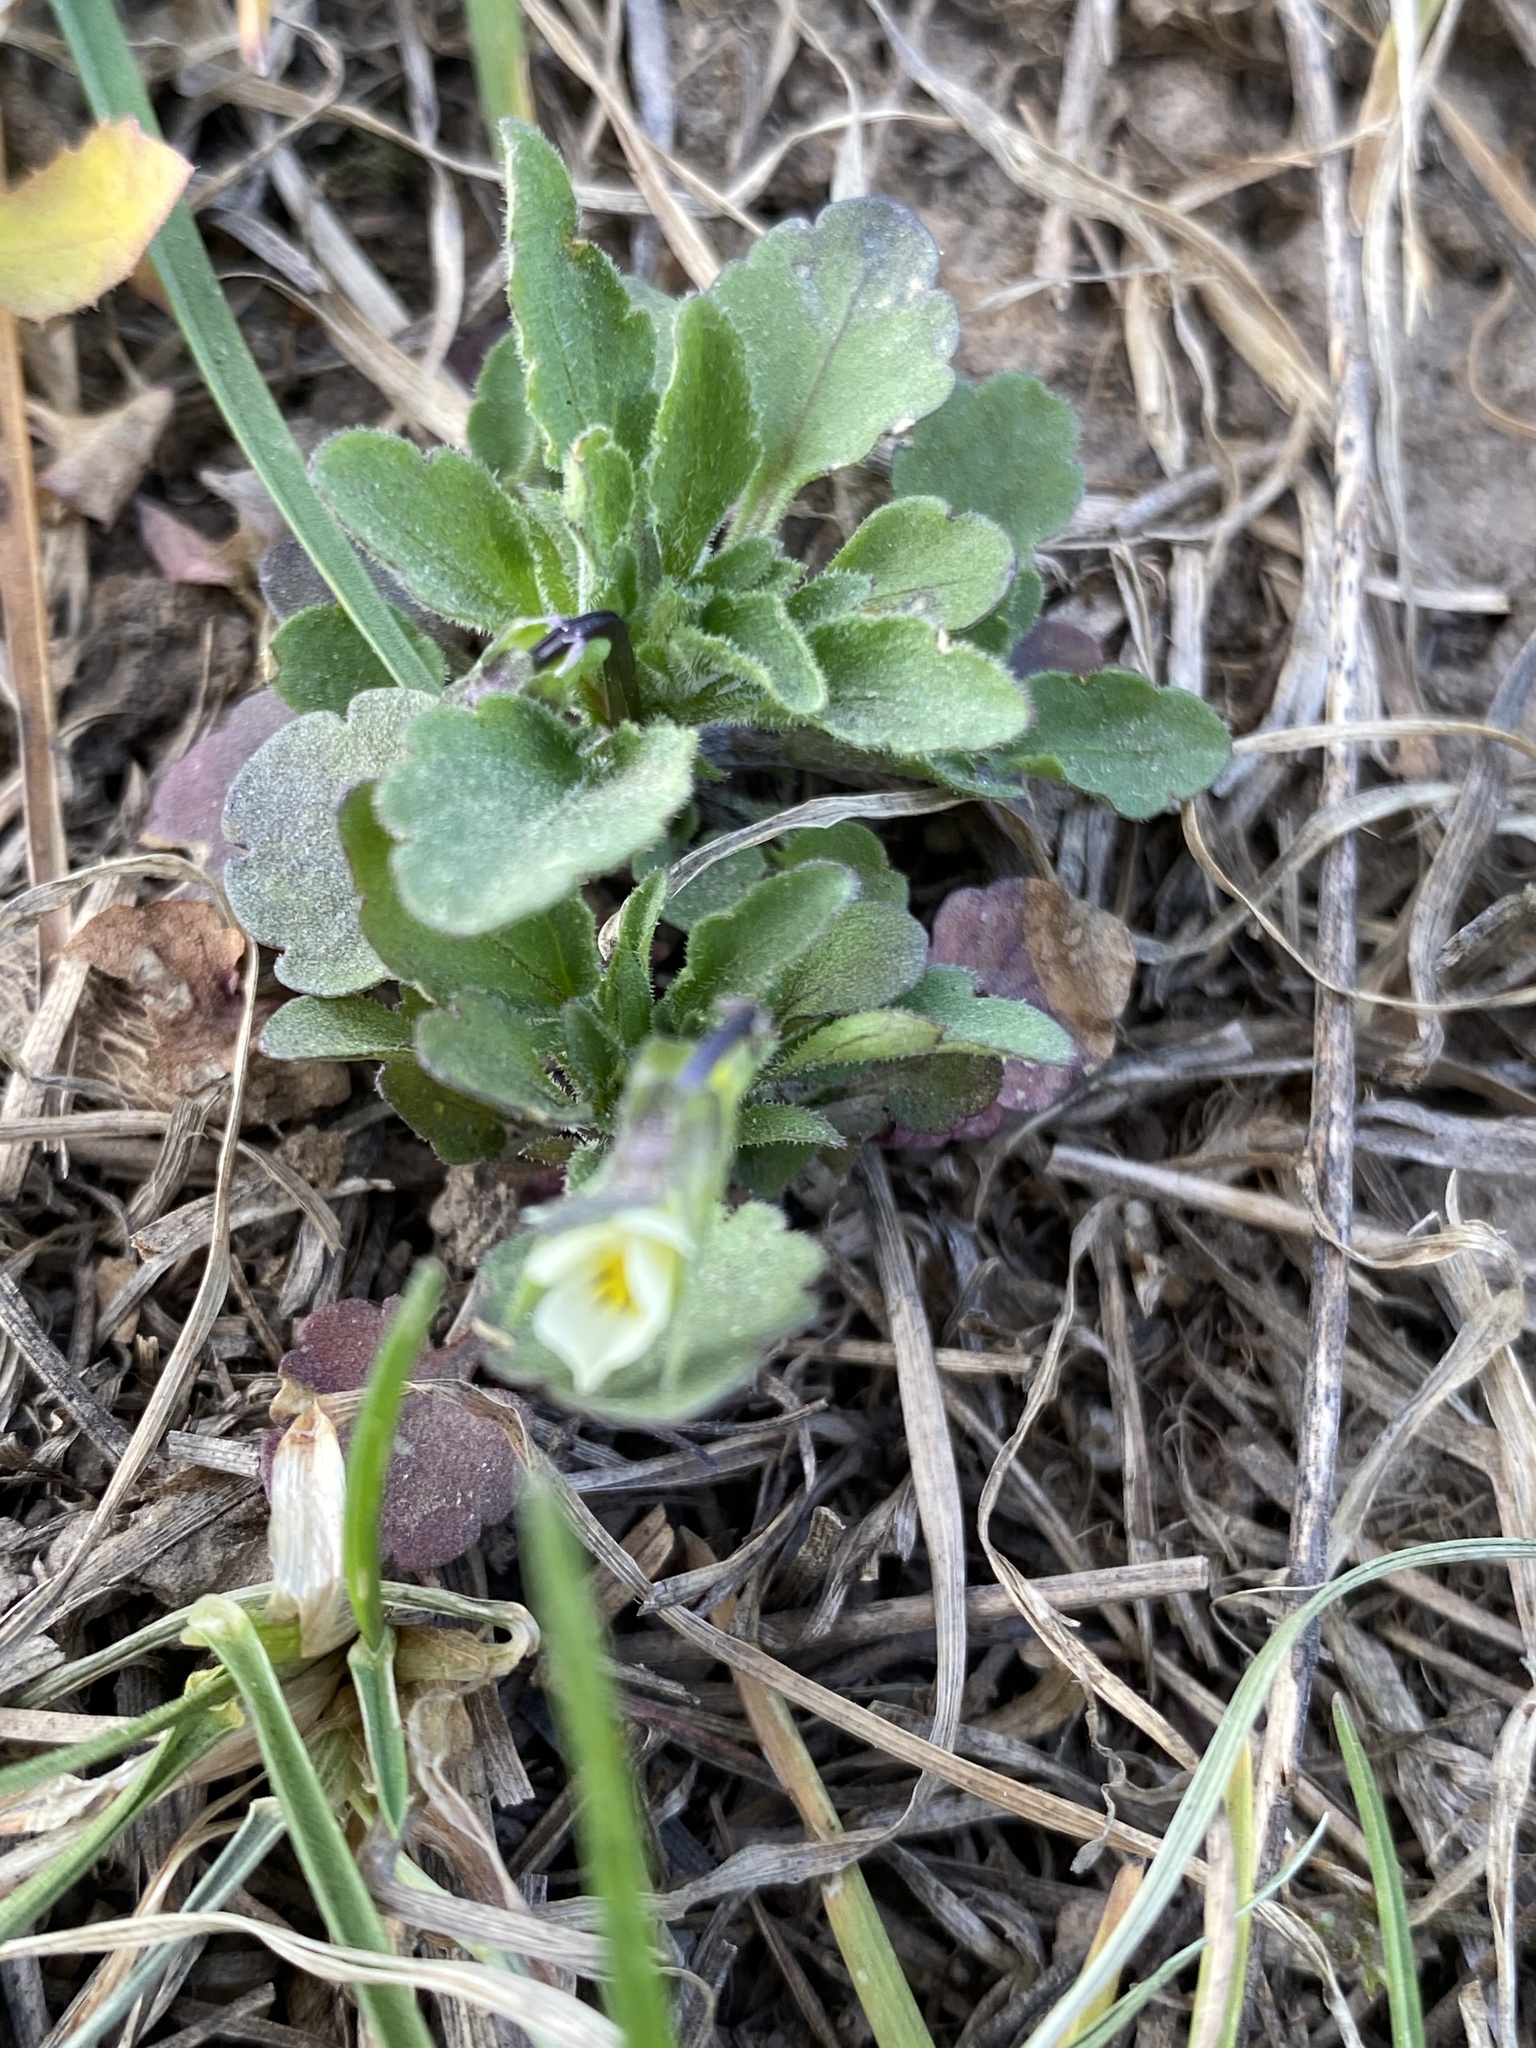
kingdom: Plantae
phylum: Tracheophyta
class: Magnoliopsida
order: Malpighiales
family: Violaceae
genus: Viola
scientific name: Viola arvensis
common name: Field pansy
